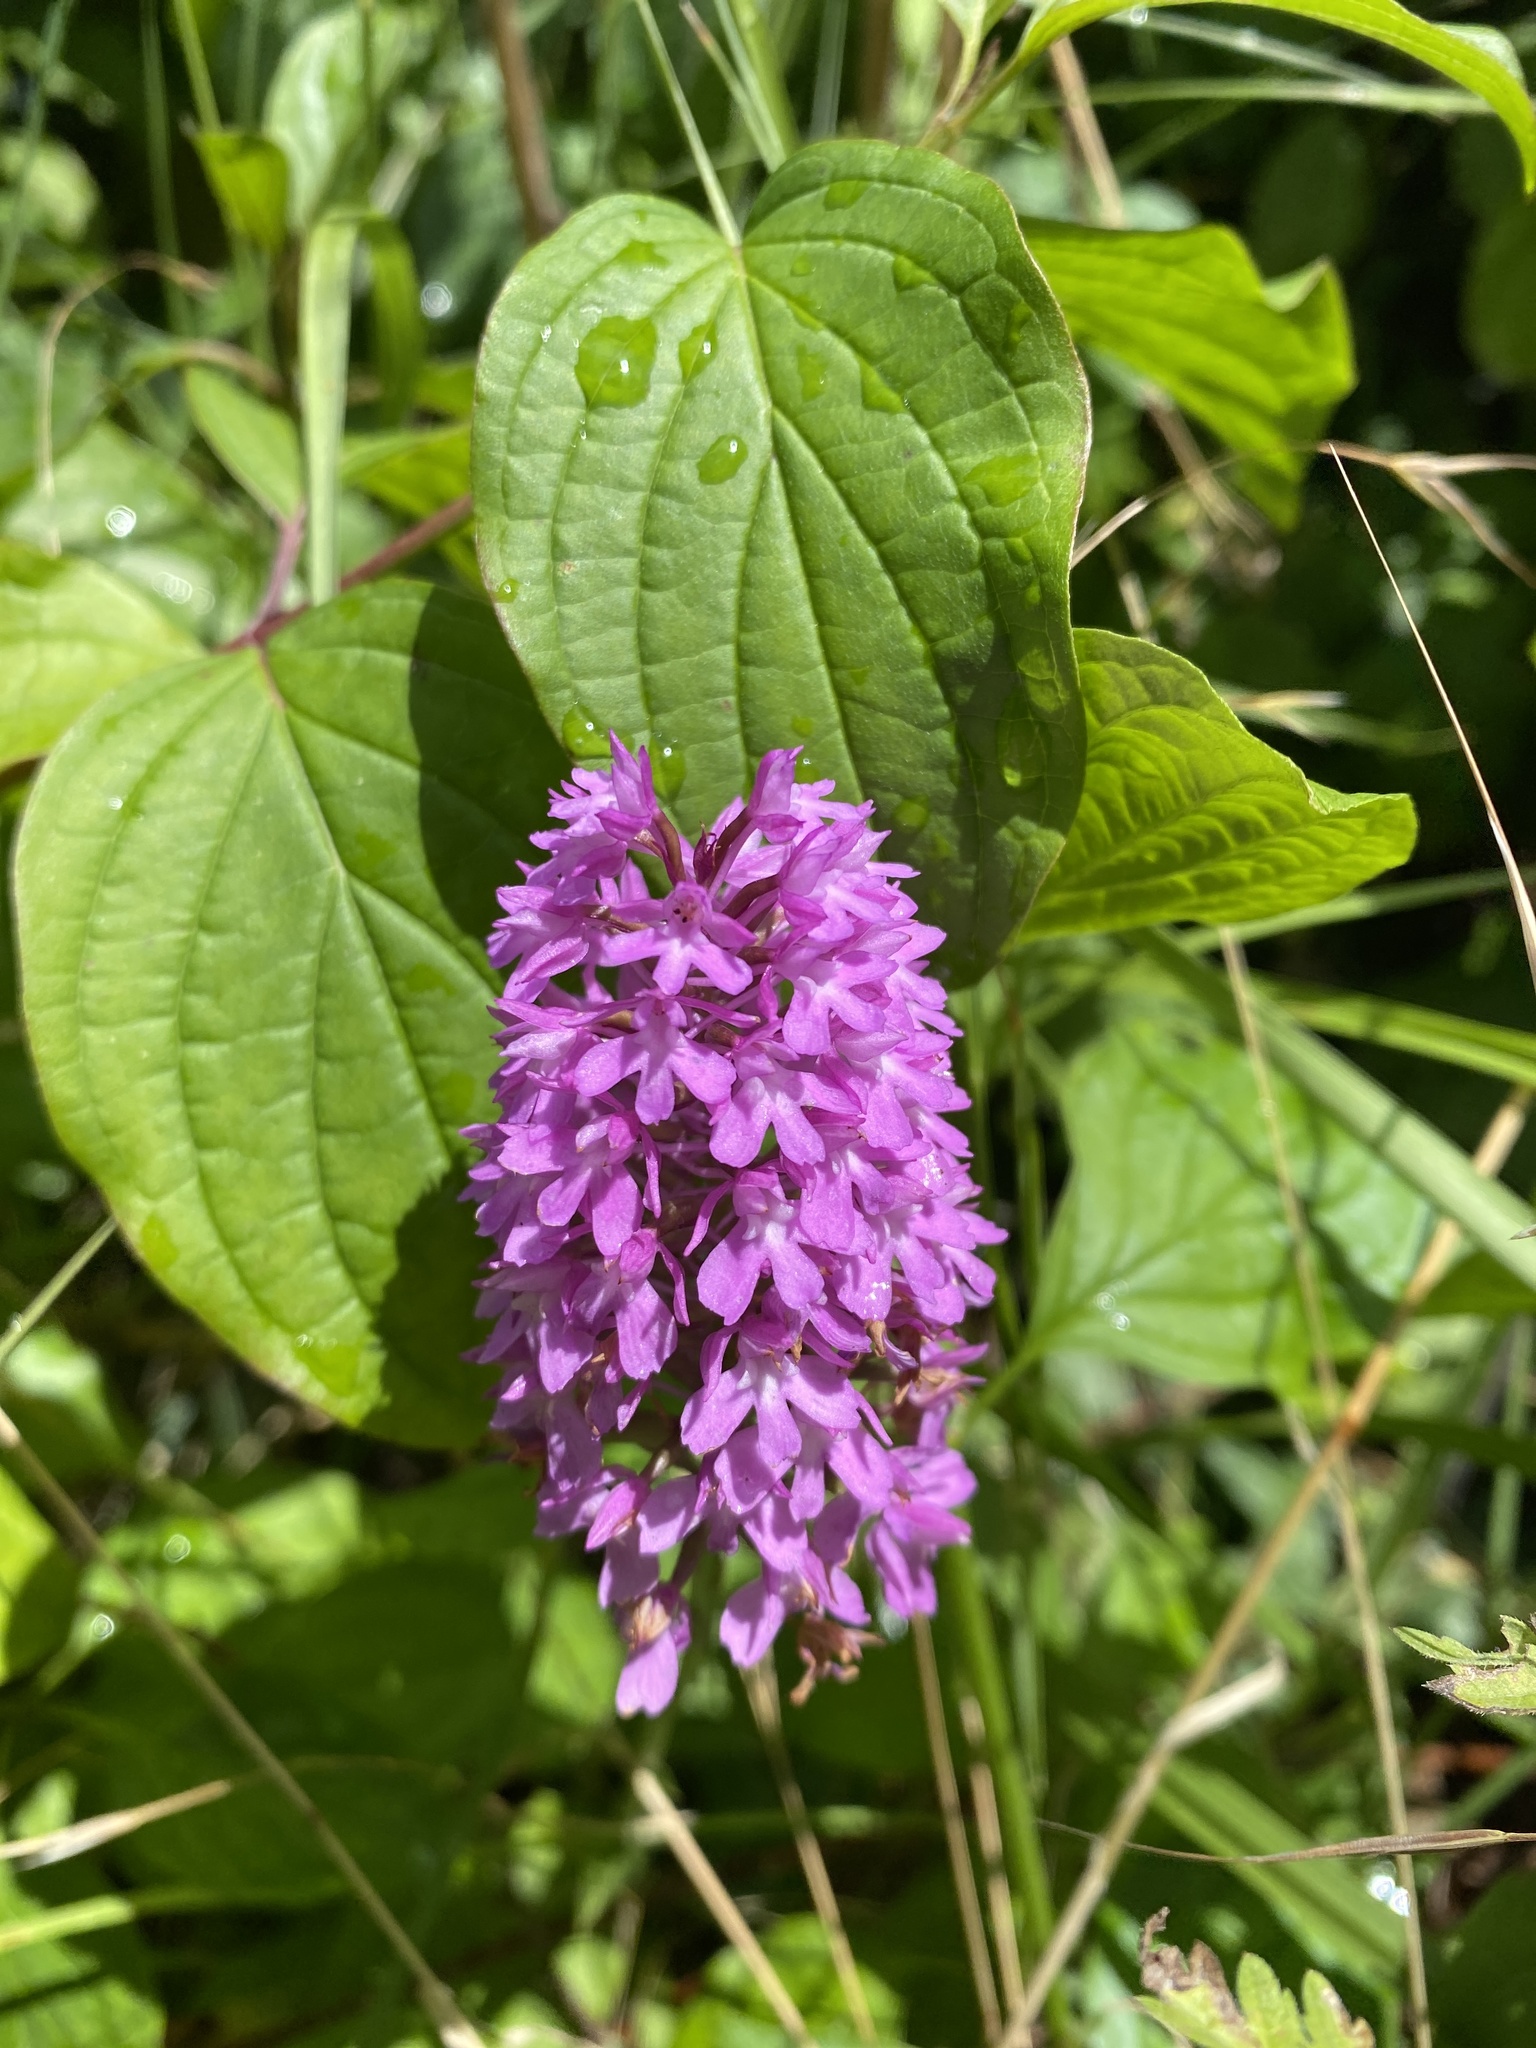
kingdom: Plantae
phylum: Tracheophyta
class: Liliopsida
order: Asparagales
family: Orchidaceae
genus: Anacamptis
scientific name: Anacamptis pyramidalis
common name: Pyramidal orchid
